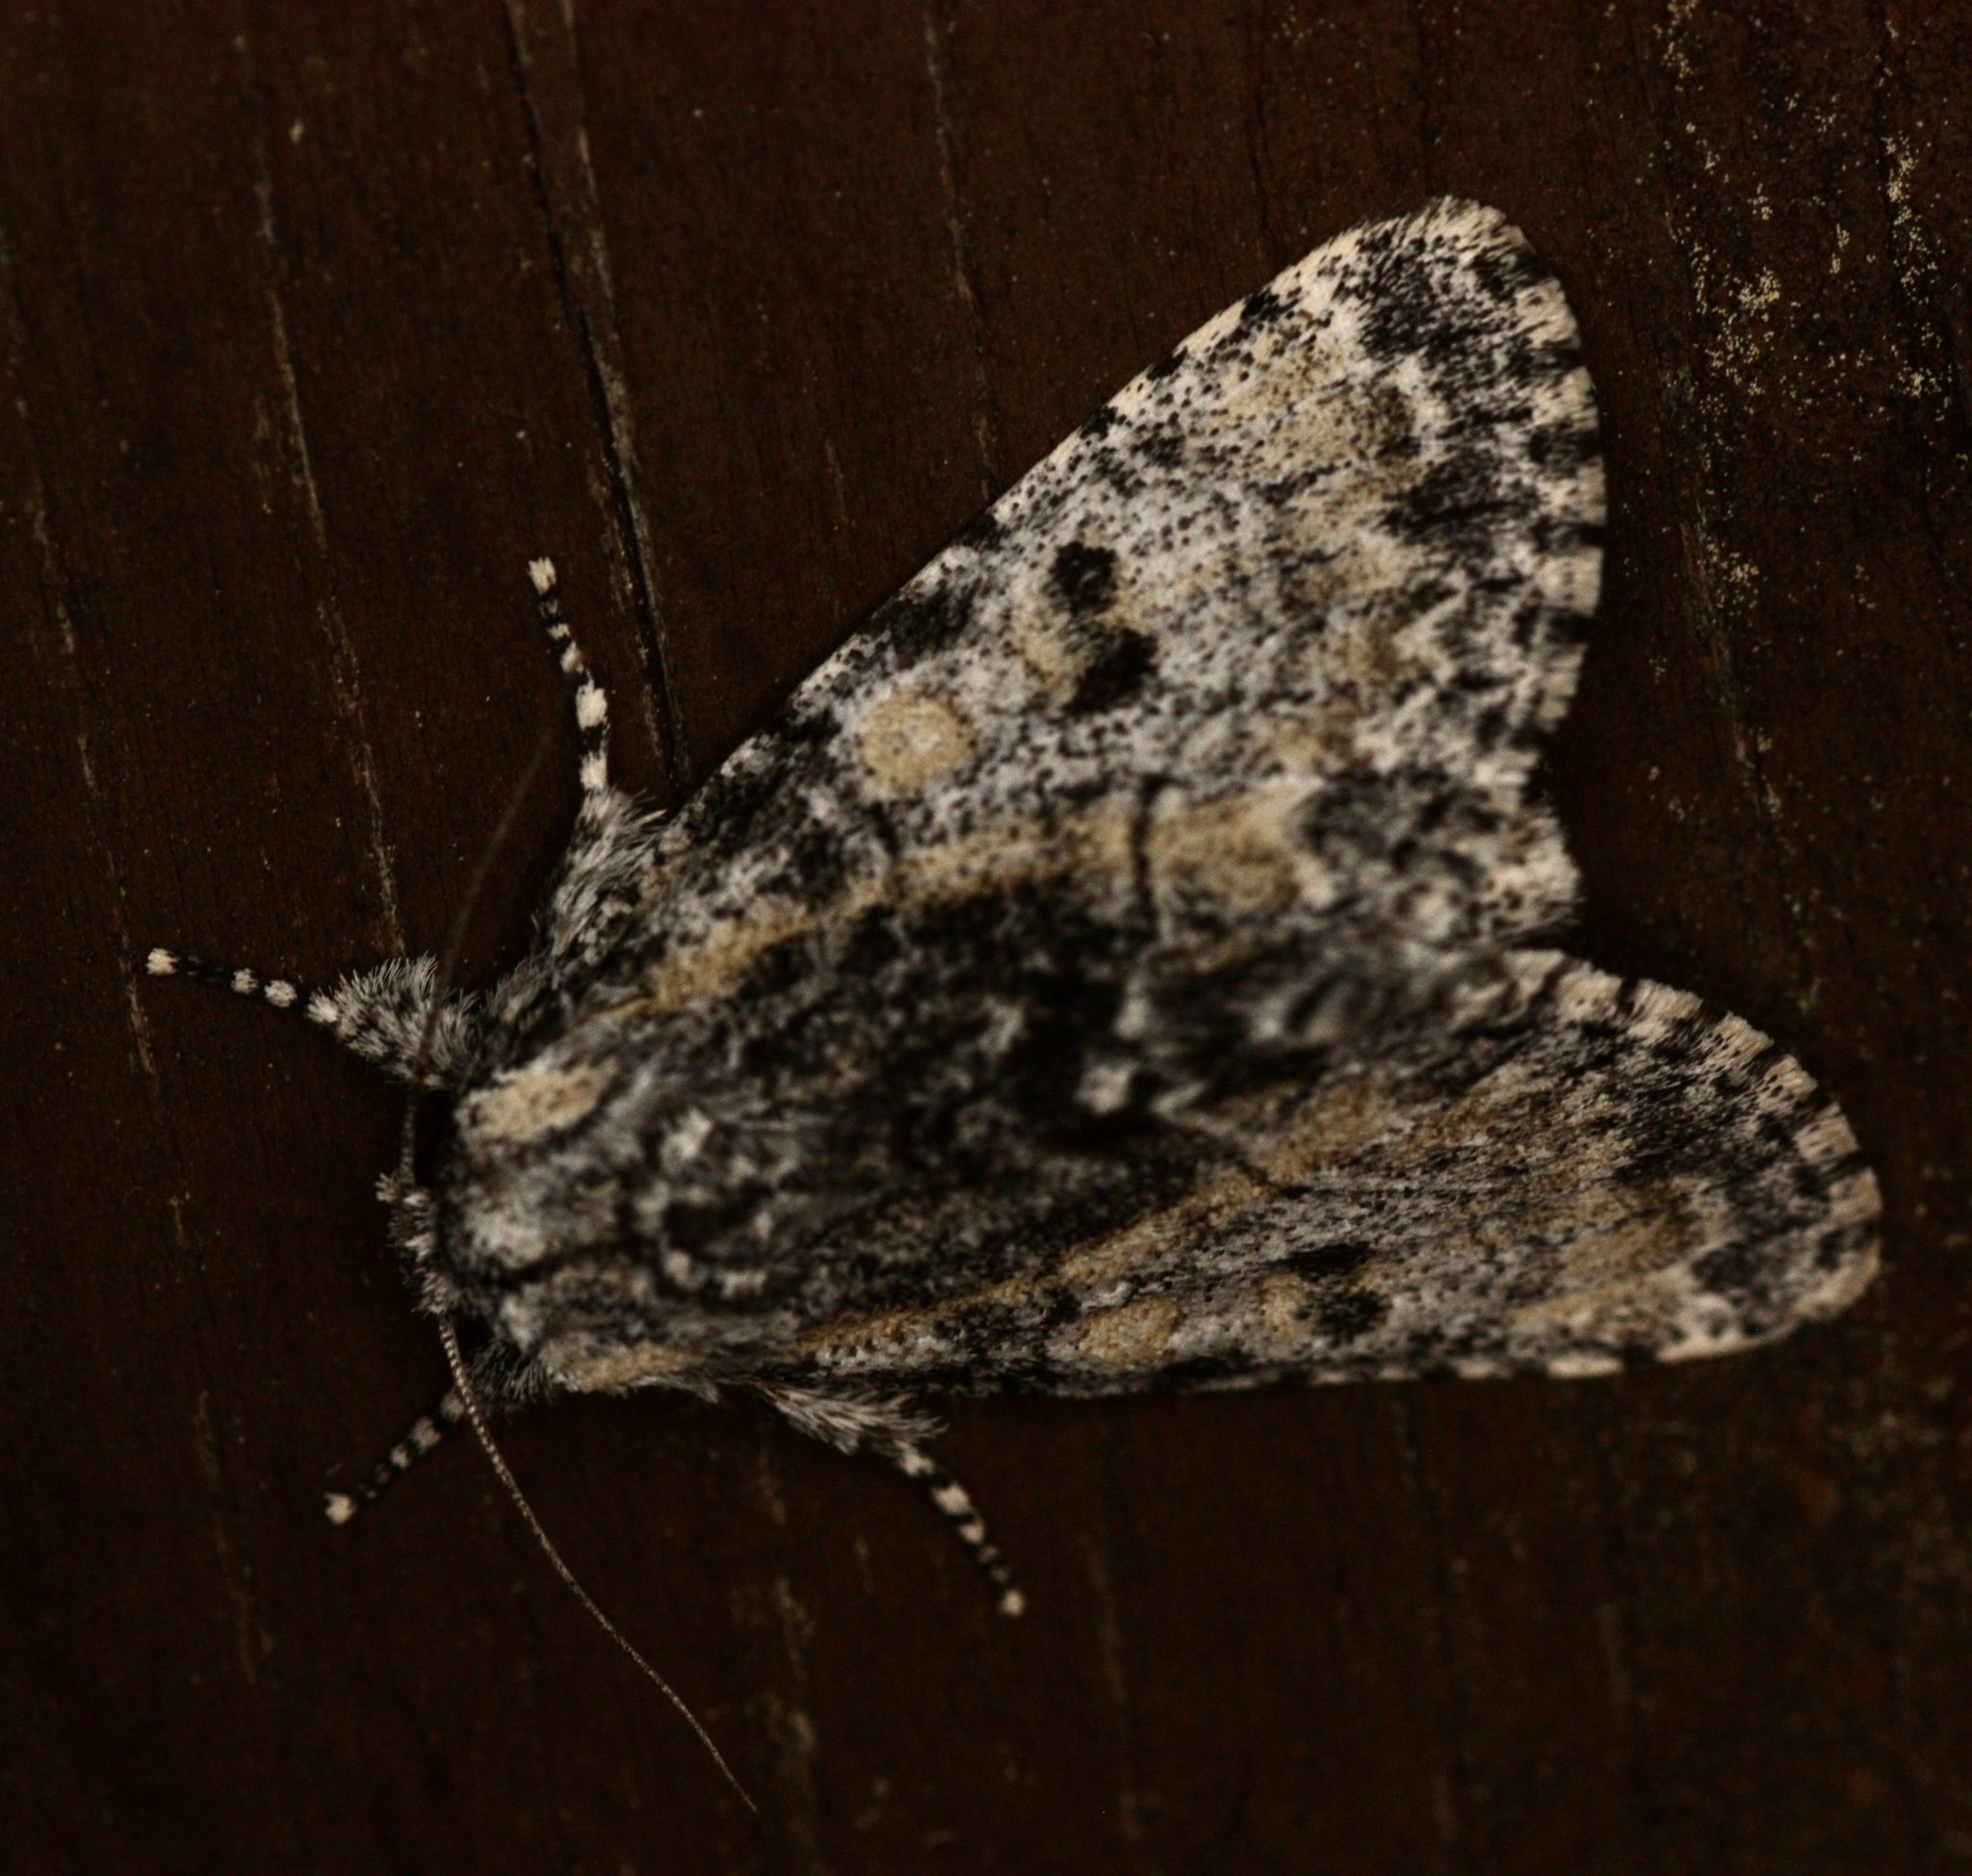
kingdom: Animalia
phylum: Arthropoda
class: Insecta
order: Lepidoptera
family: Noctuidae
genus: Raphia
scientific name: Raphia frater
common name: Brother
